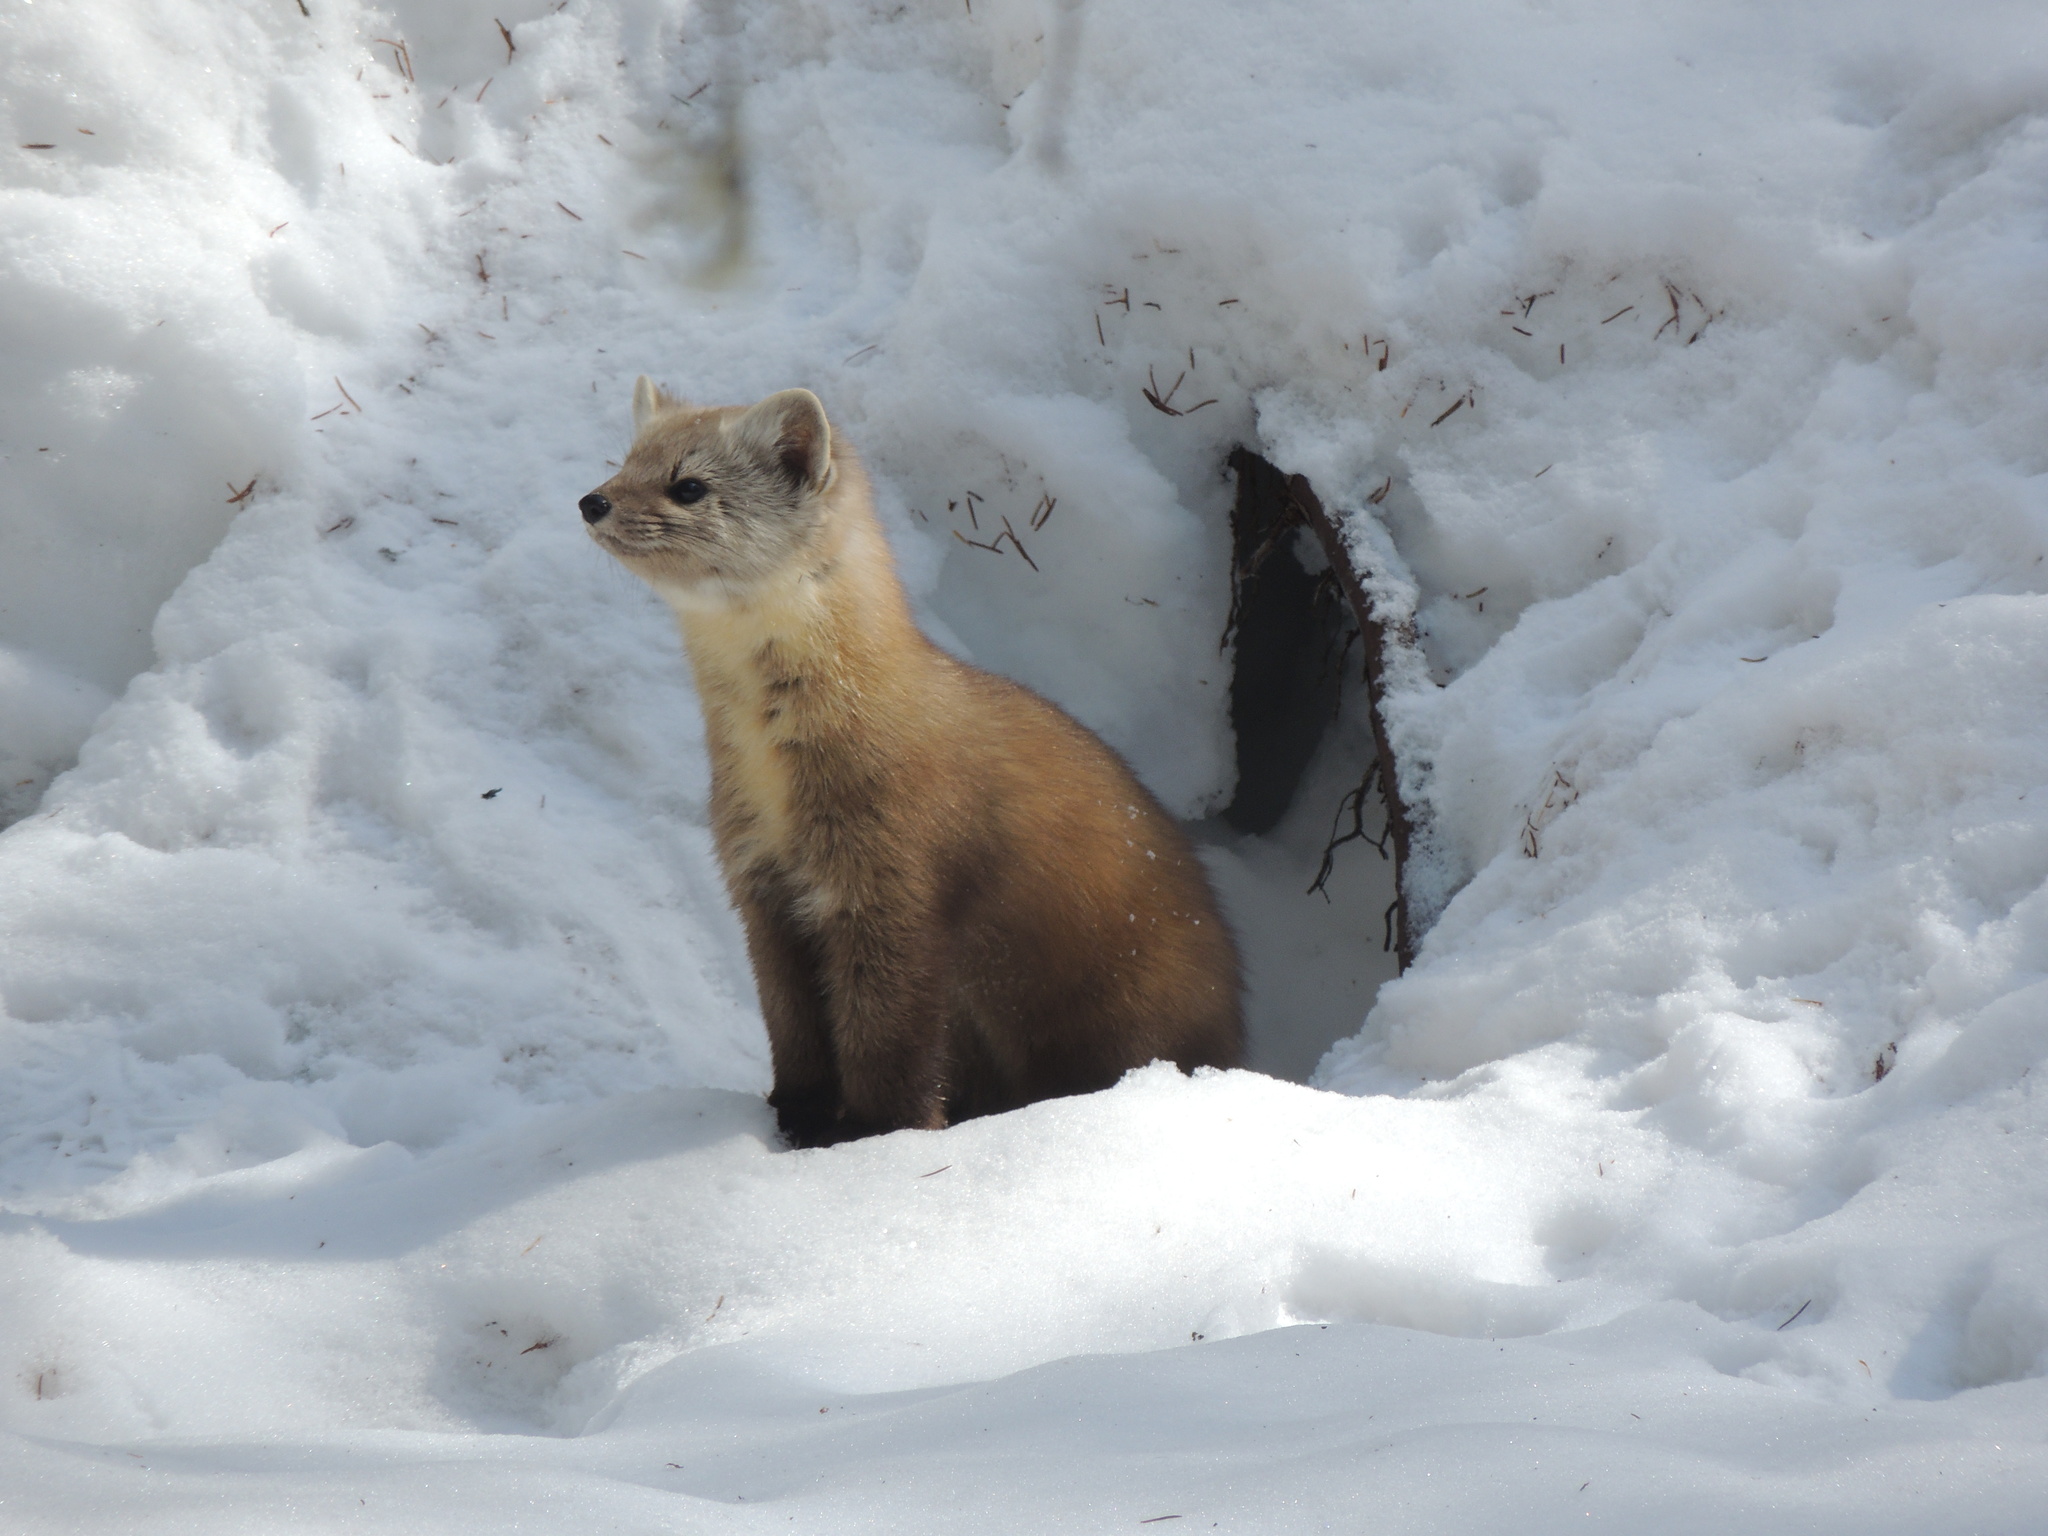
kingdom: Animalia
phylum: Chordata
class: Mammalia
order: Carnivora
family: Mustelidae
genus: Martes
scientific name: Martes americana
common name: American marten
